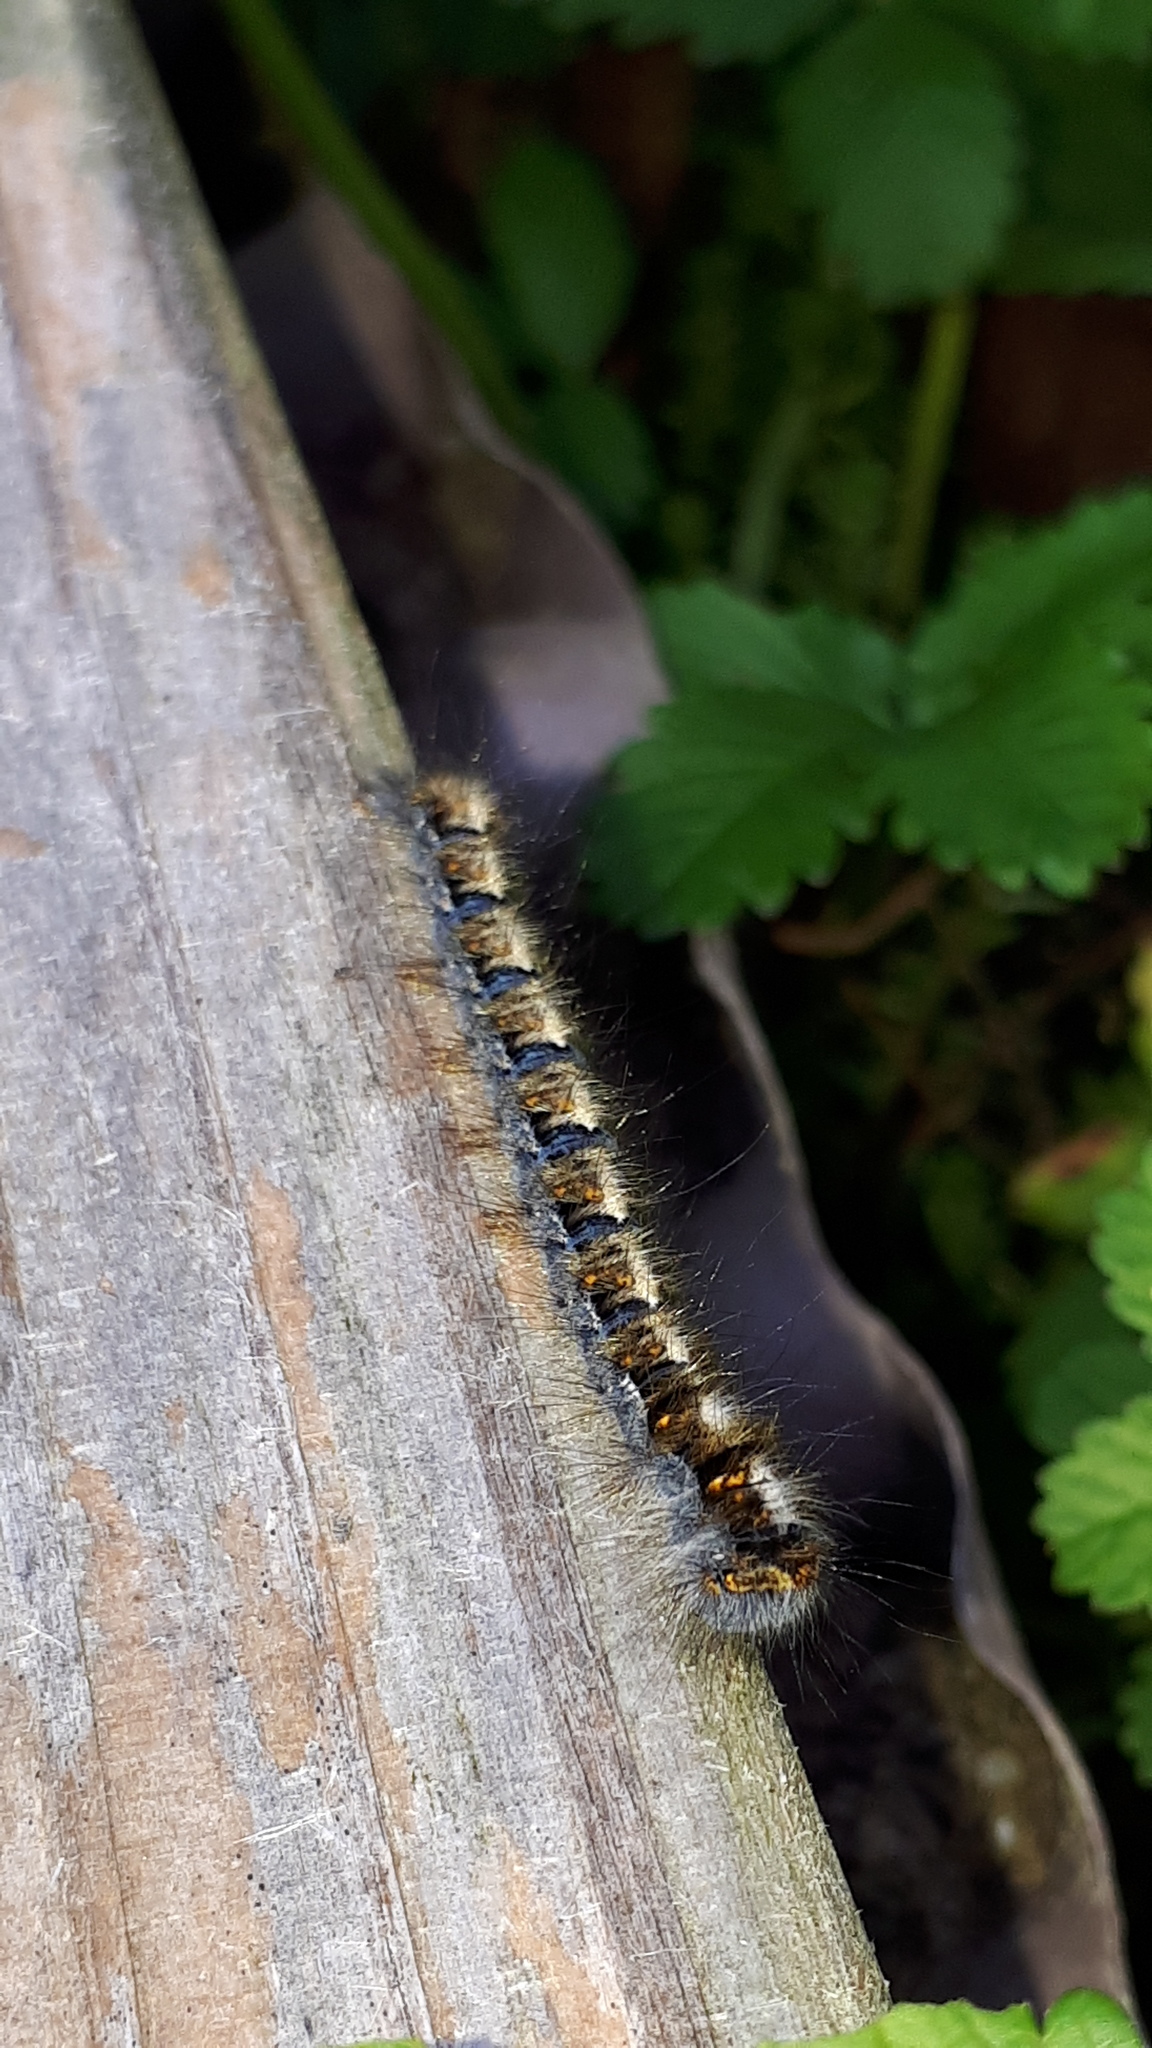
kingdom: Animalia
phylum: Arthropoda
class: Insecta
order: Lepidoptera
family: Lasiocampidae
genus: Lasiocampa
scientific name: Lasiocampa quercus
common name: Oak eggar
